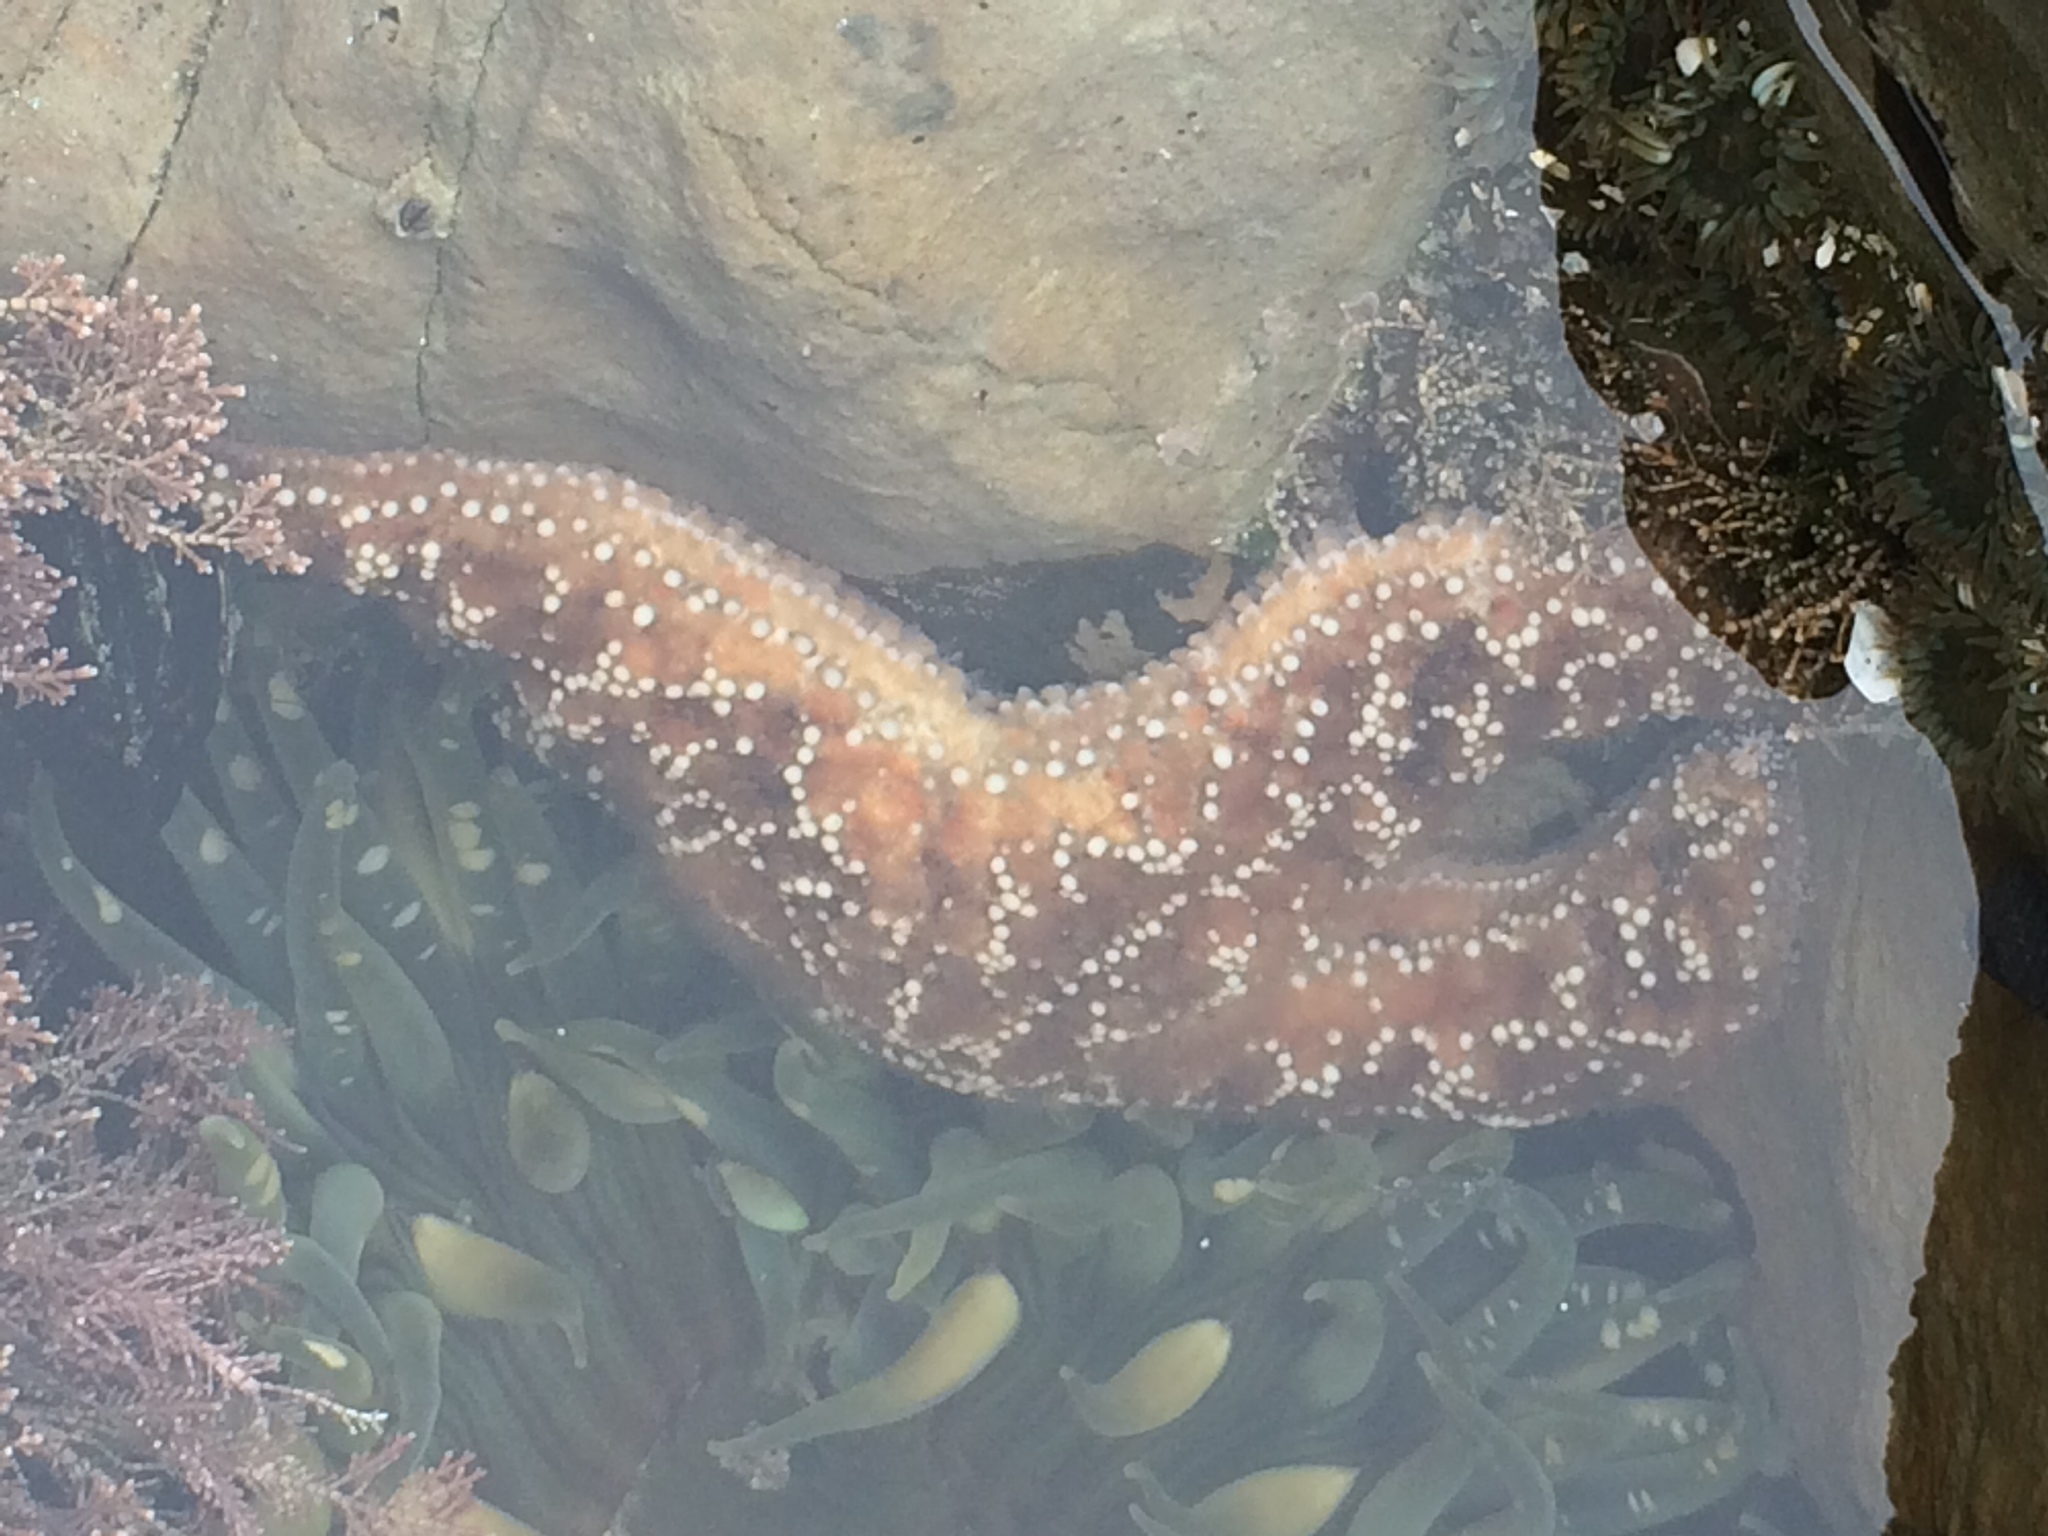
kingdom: Animalia
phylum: Echinodermata
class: Asteroidea
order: Forcipulatida
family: Asteriidae
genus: Pisaster
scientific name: Pisaster ochraceus
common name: Ochre stars
